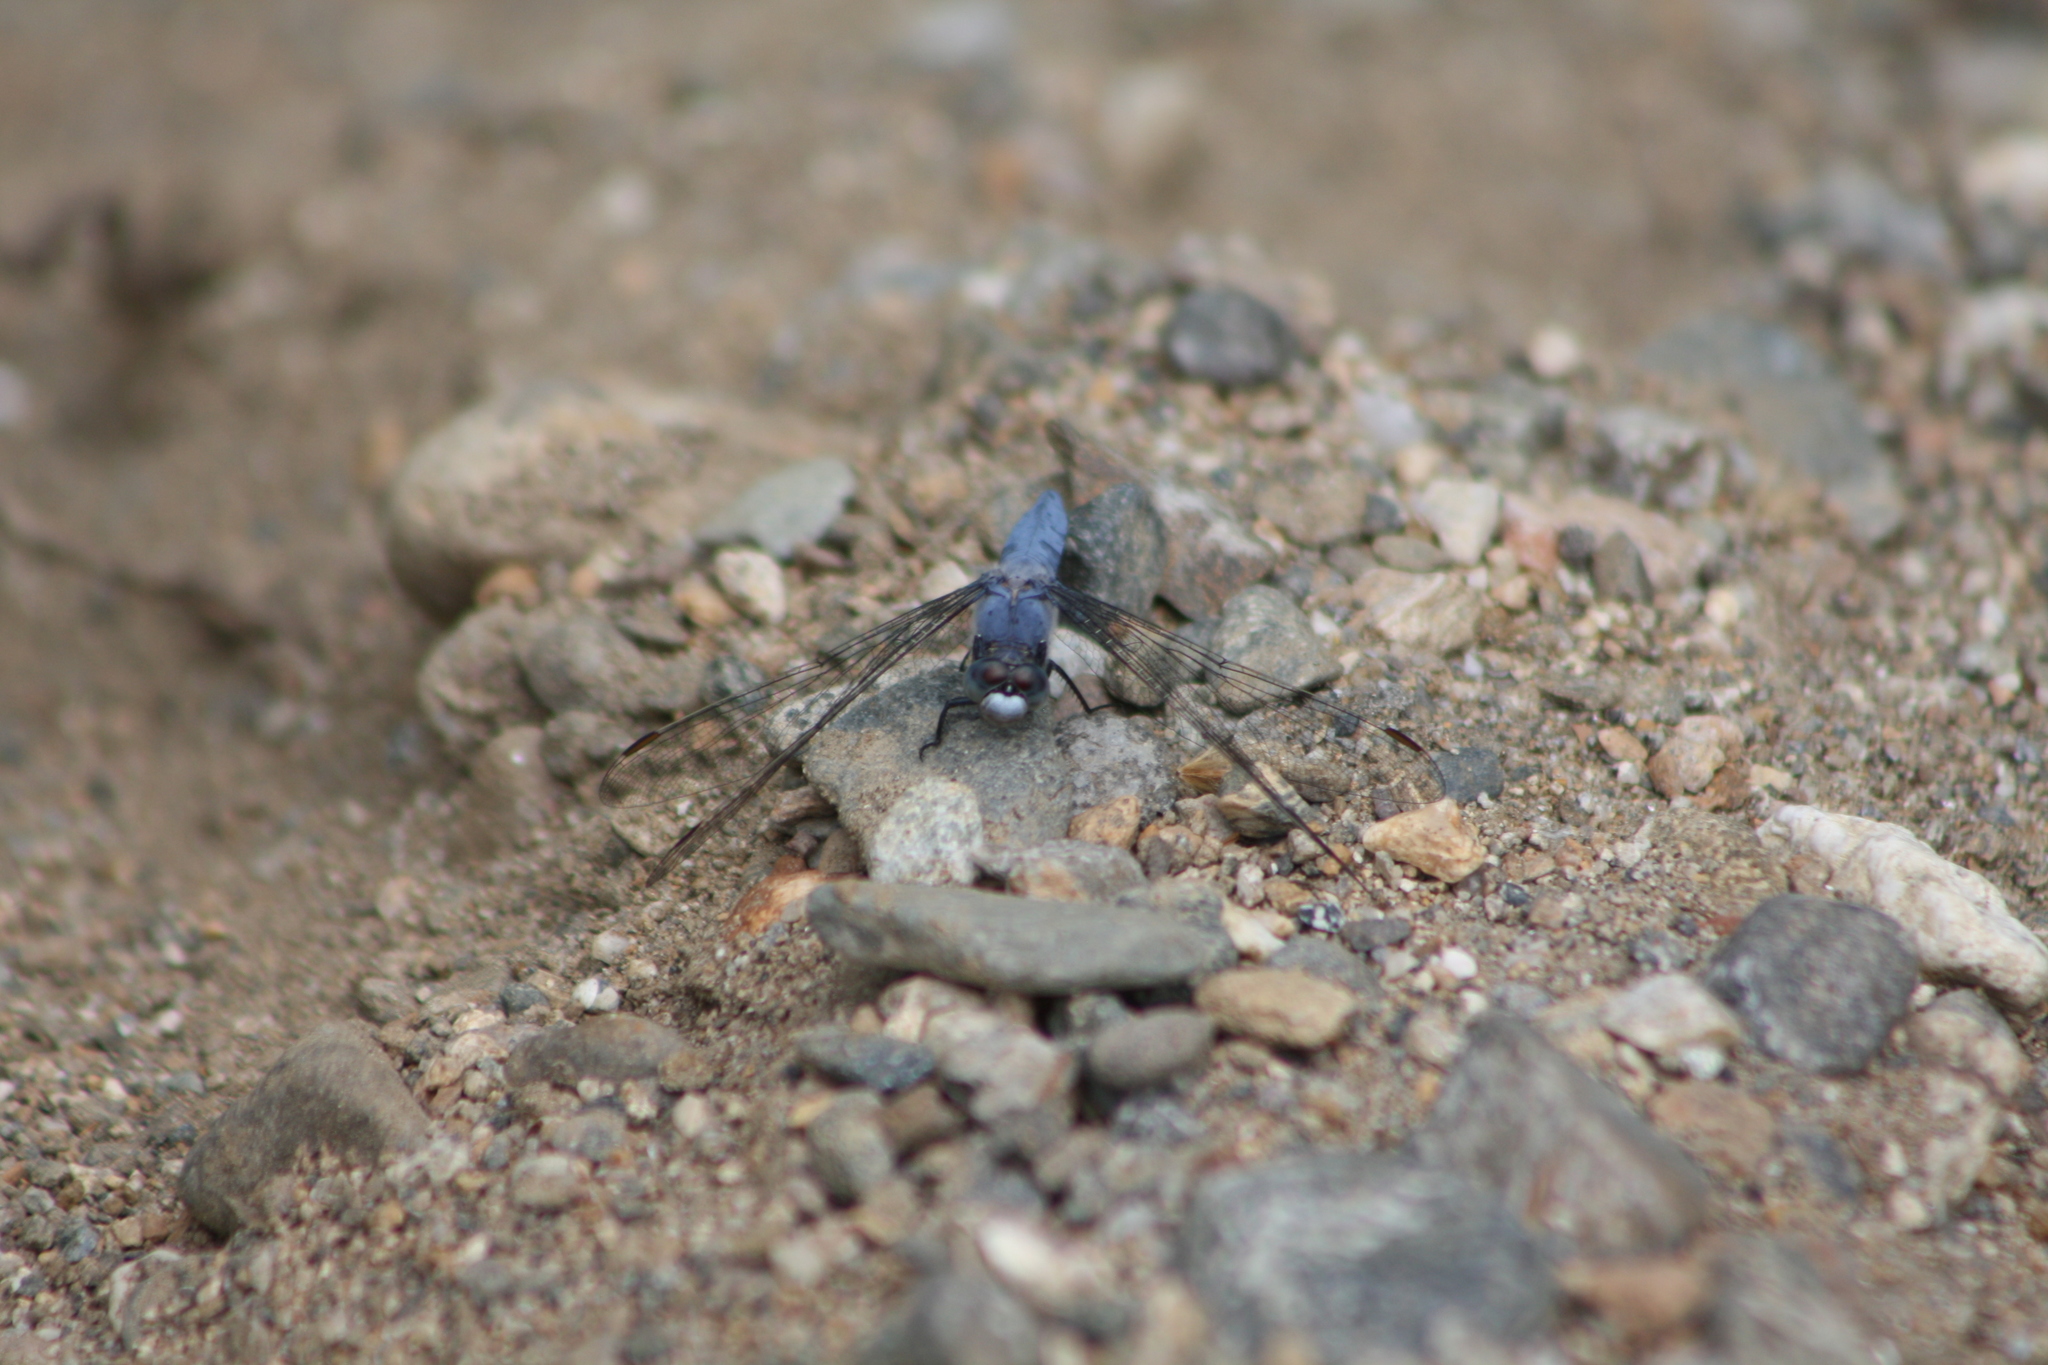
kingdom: Animalia
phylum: Arthropoda
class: Insecta
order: Odonata
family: Libellulidae
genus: Orthetrum
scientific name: Orthetrum brunneum
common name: Southern skimmer
